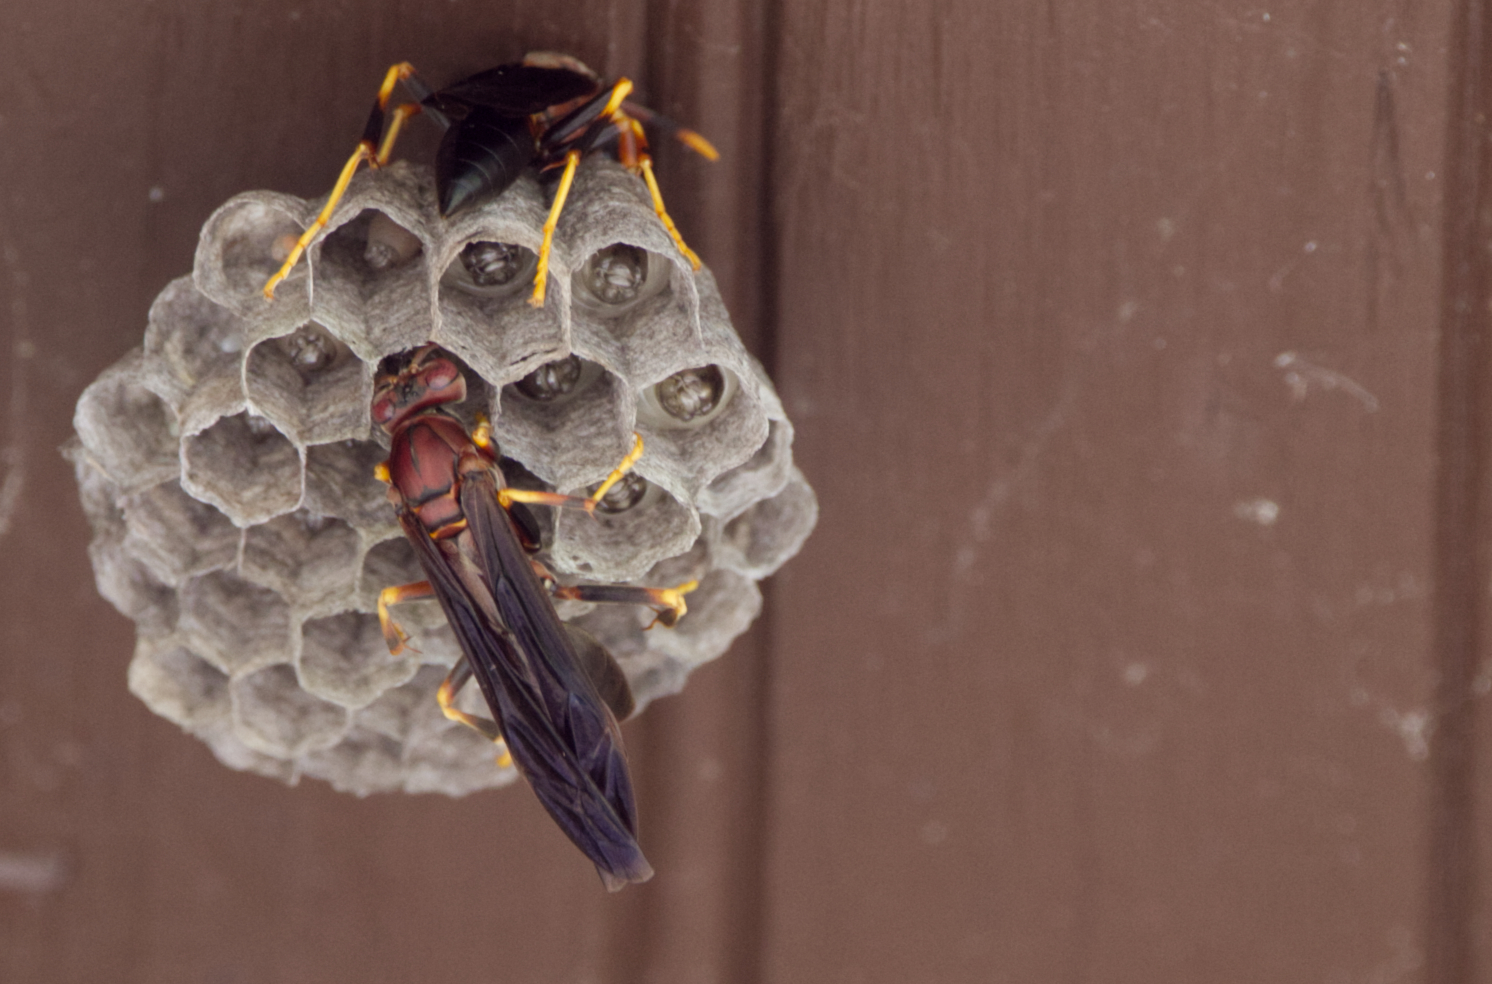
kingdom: Animalia
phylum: Arthropoda
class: Insecta
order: Hymenoptera
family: Eumenidae
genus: Polistes
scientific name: Polistes annularis
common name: Ringed paper wasp
